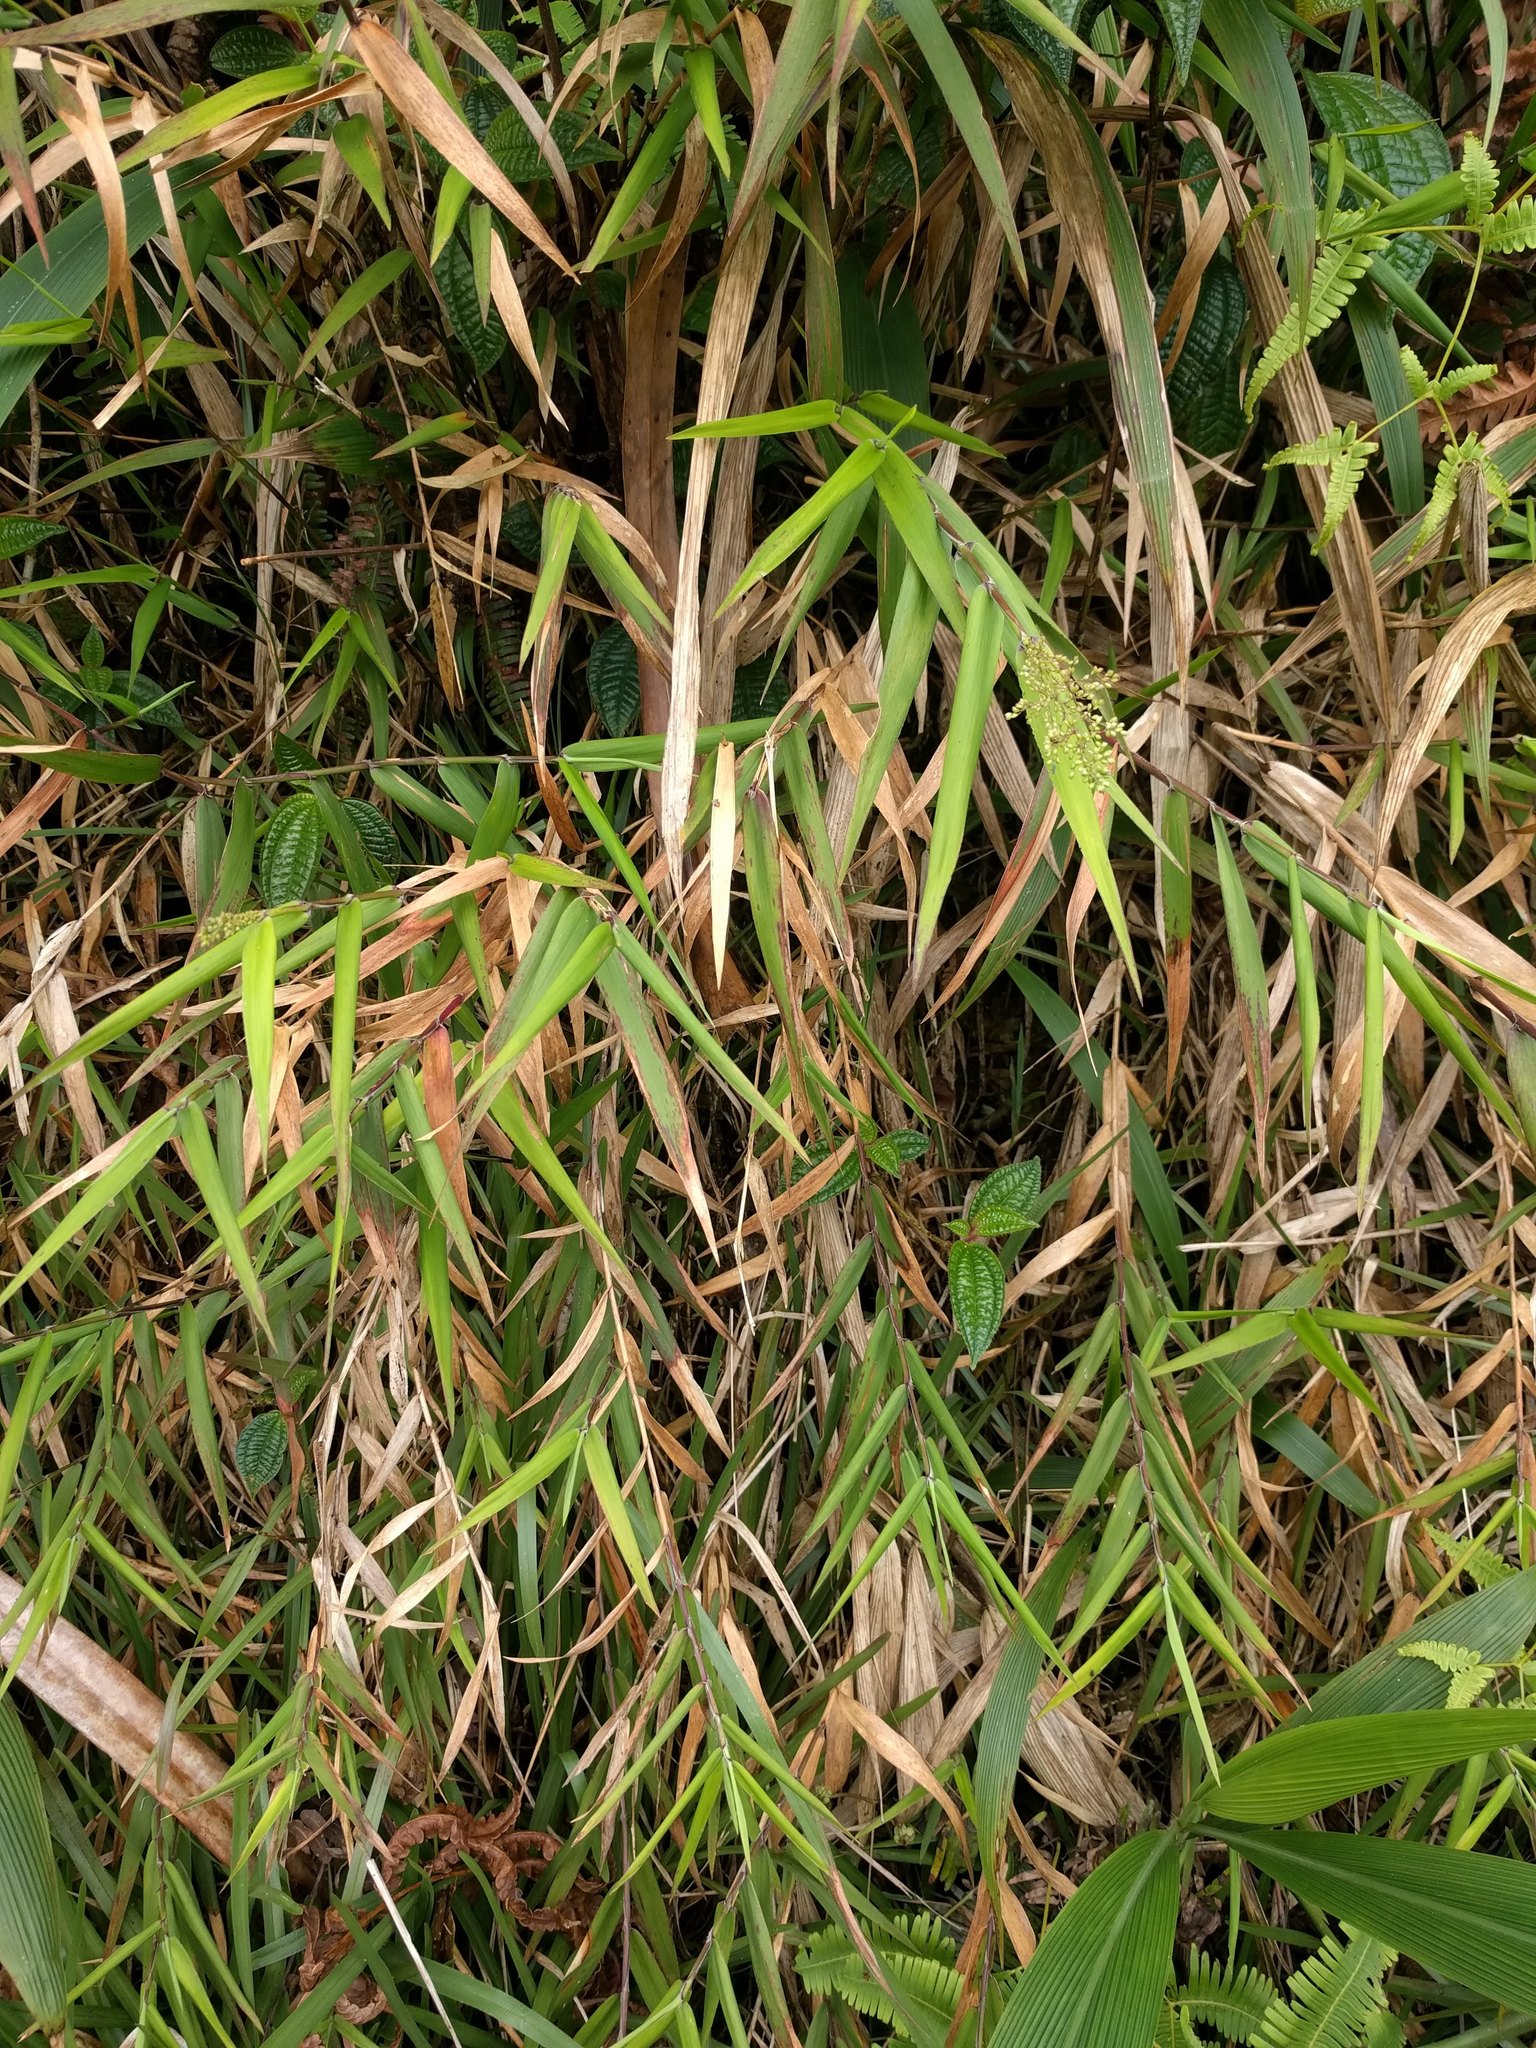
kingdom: Plantae
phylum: Tracheophyta
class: Liliopsida
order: Poales
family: Poaceae
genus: Isachne
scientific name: Isachne distichophylla
